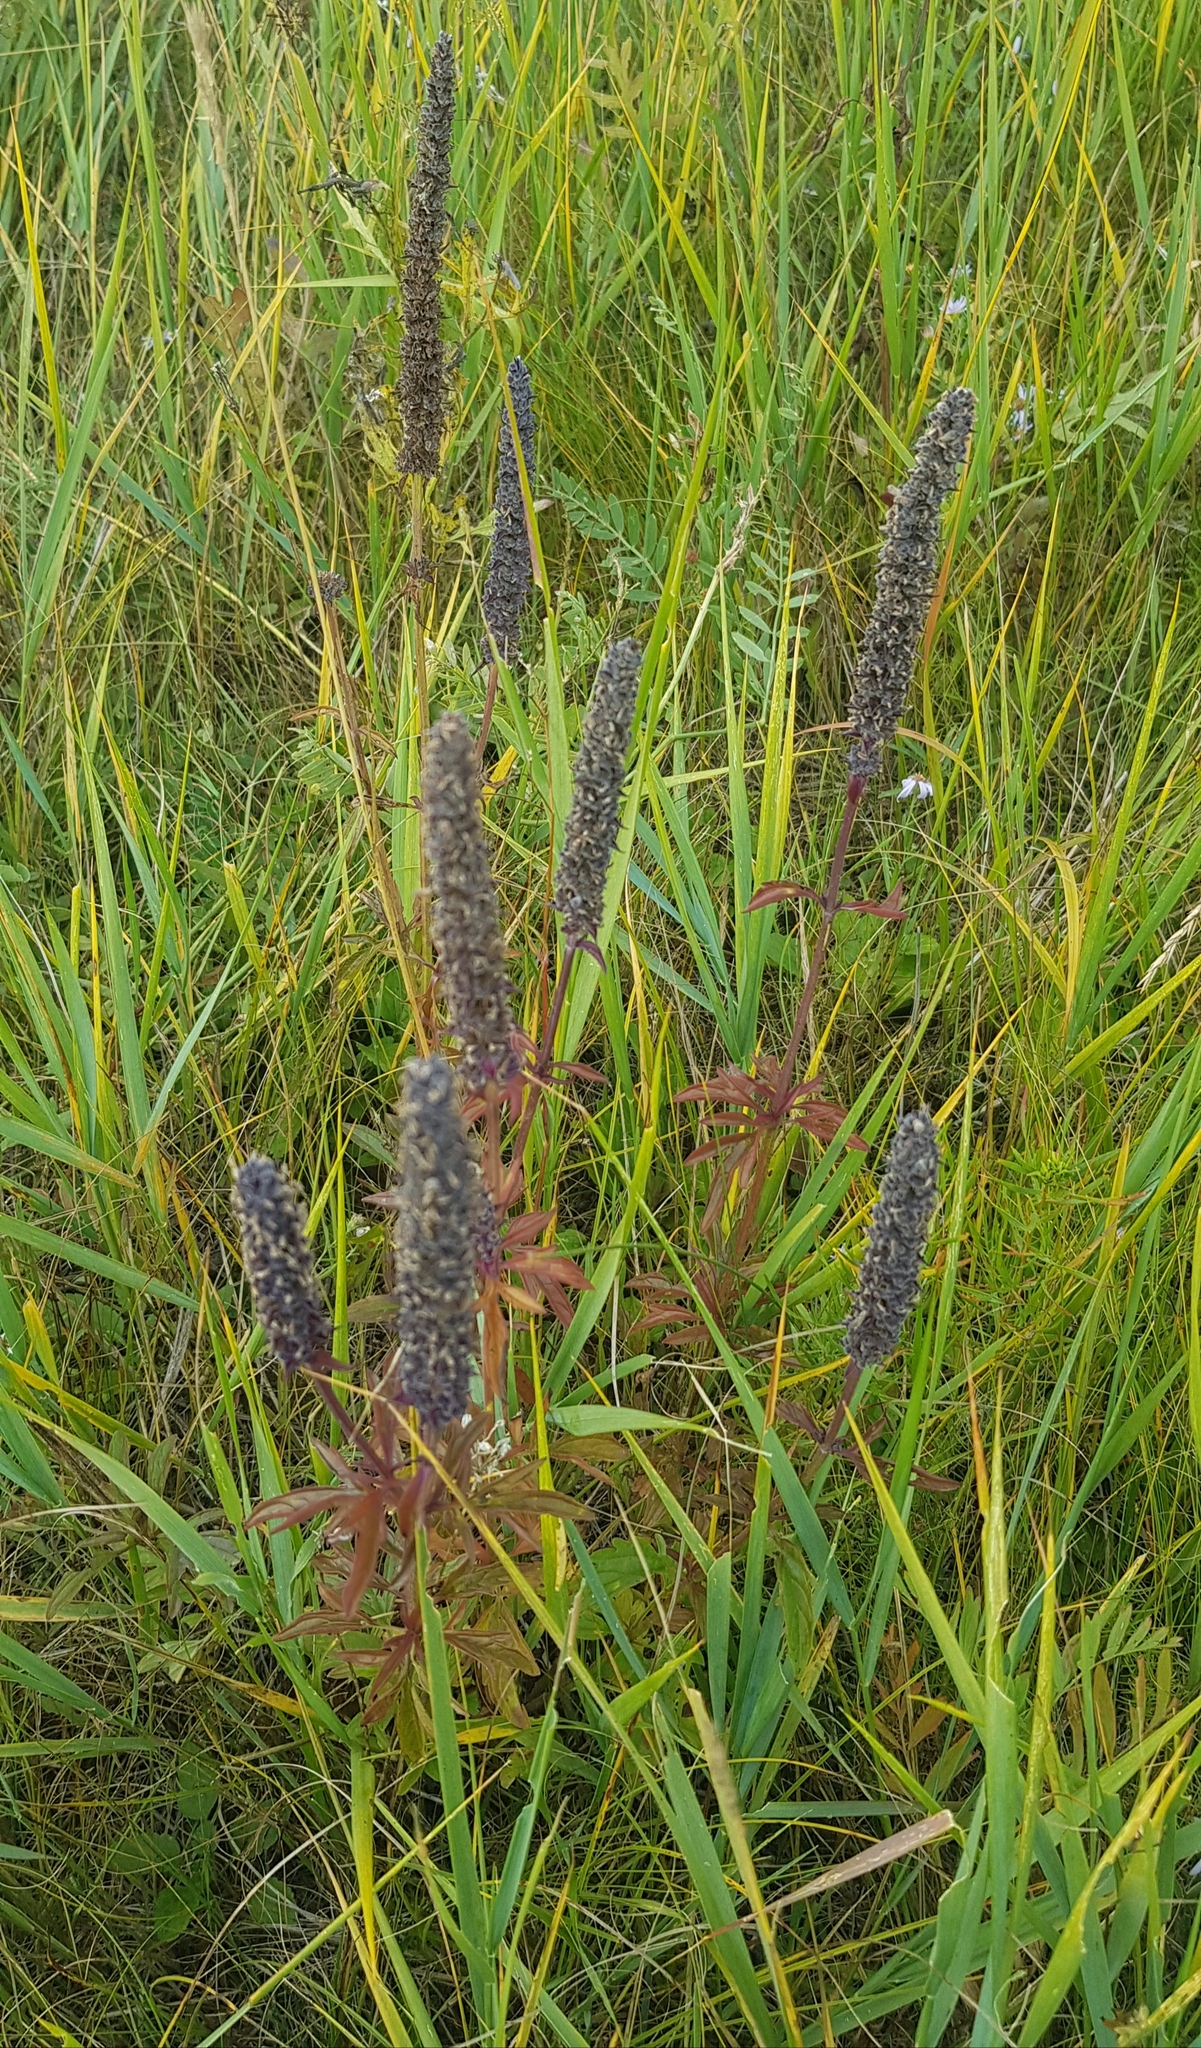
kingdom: Plantae
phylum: Tracheophyta
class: Magnoliopsida
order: Lamiales
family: Lamiaceae
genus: Nepeta
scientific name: Nepeta multifida
